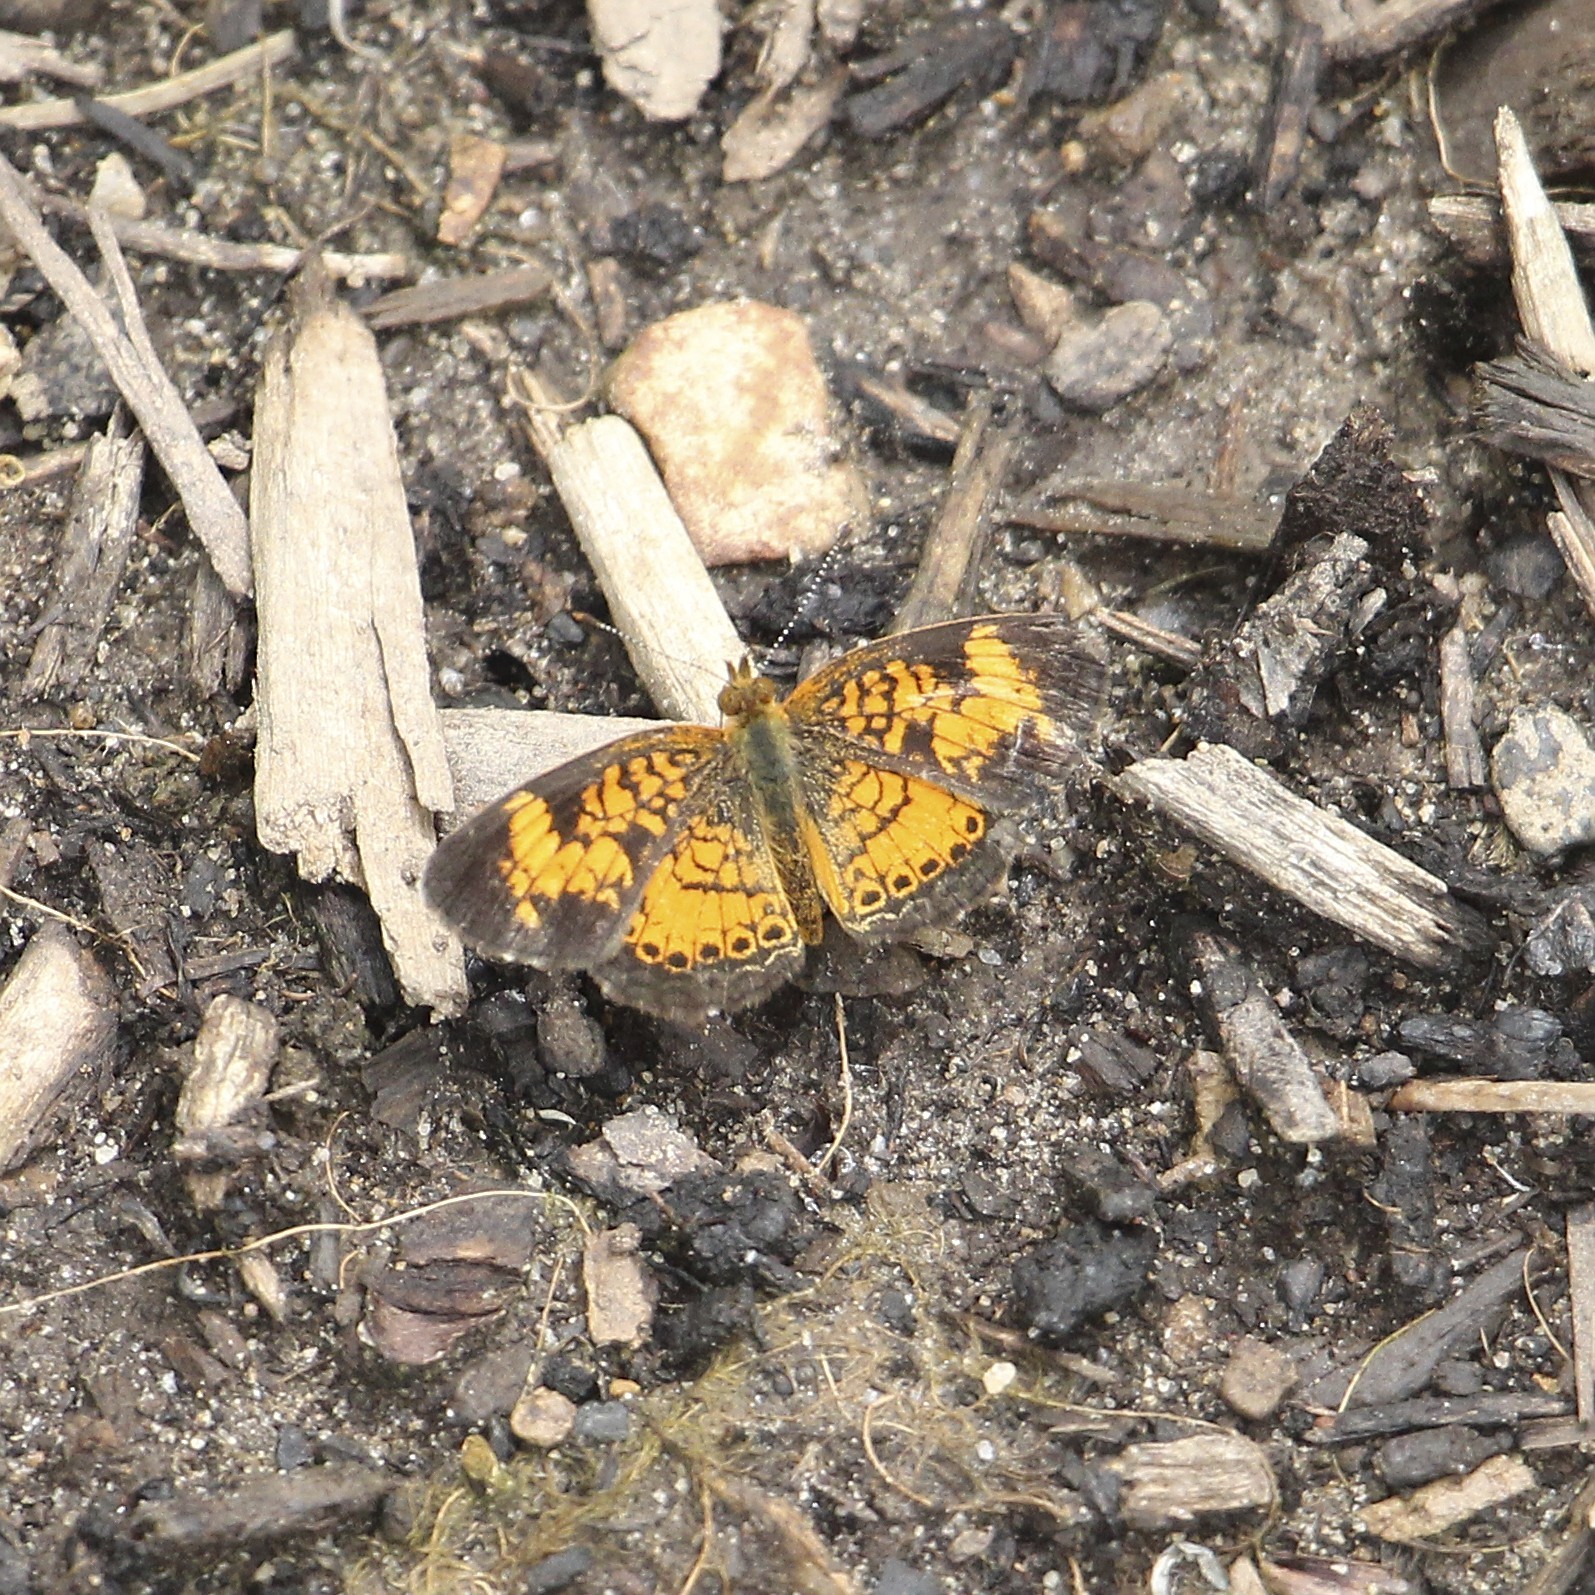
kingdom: Animalia
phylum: Arthropoda
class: Insecta
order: Lepidoptera
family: Nymphalidae
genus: Phyciodes
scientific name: Phyciodes tharos
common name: Pearl crescent
